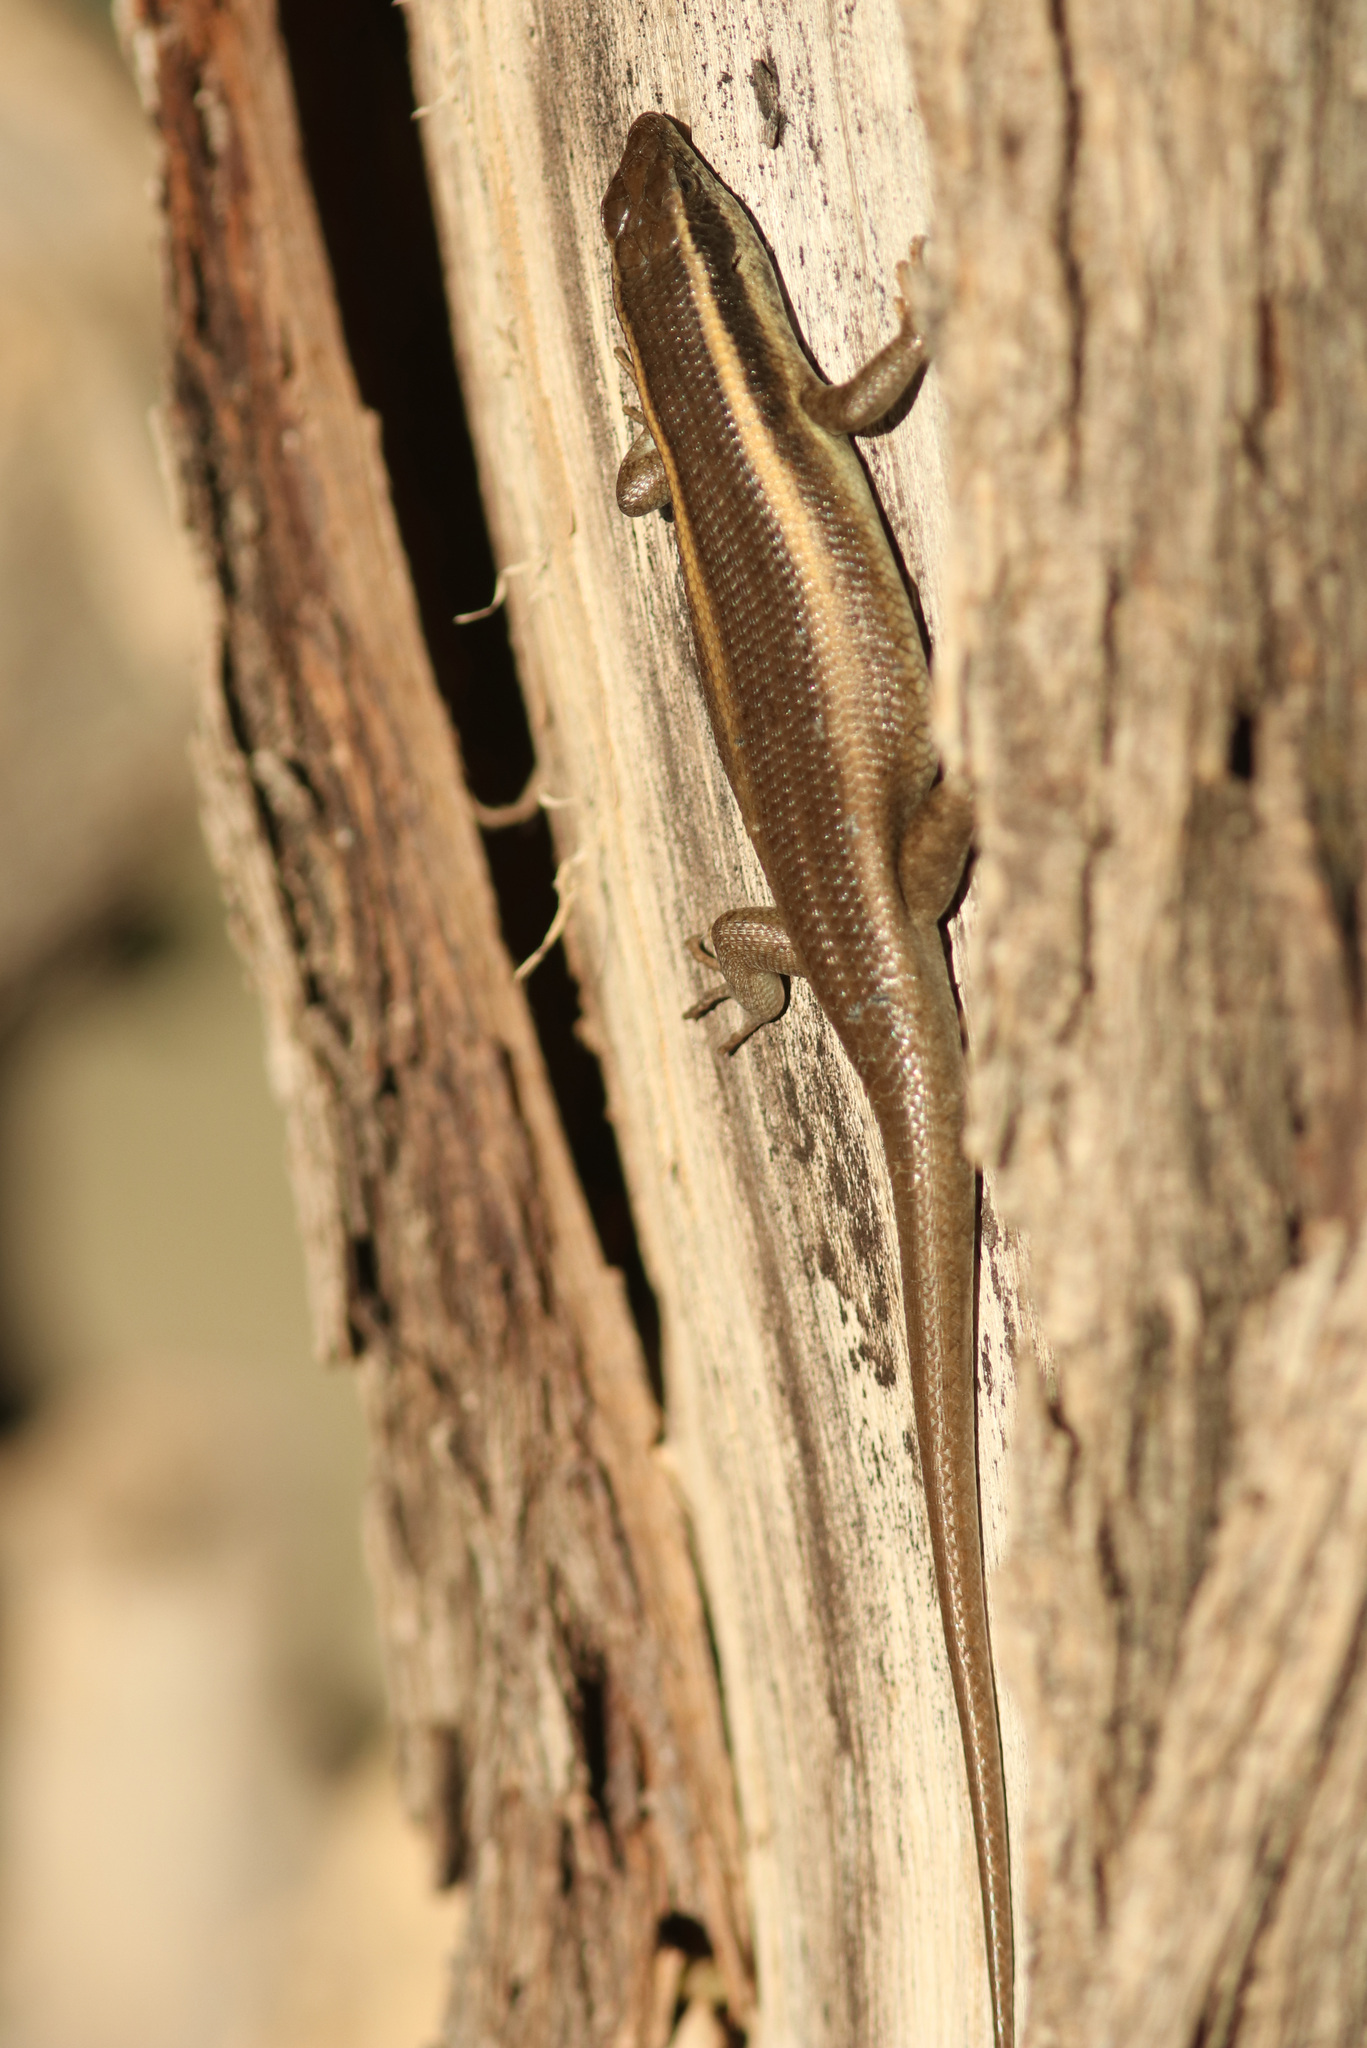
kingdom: Animalia
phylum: Chordata
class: Squamata
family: Scincidae
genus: Trachylepis
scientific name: Trachylepis wahlbergii
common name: Wahlberg’s striped skink
